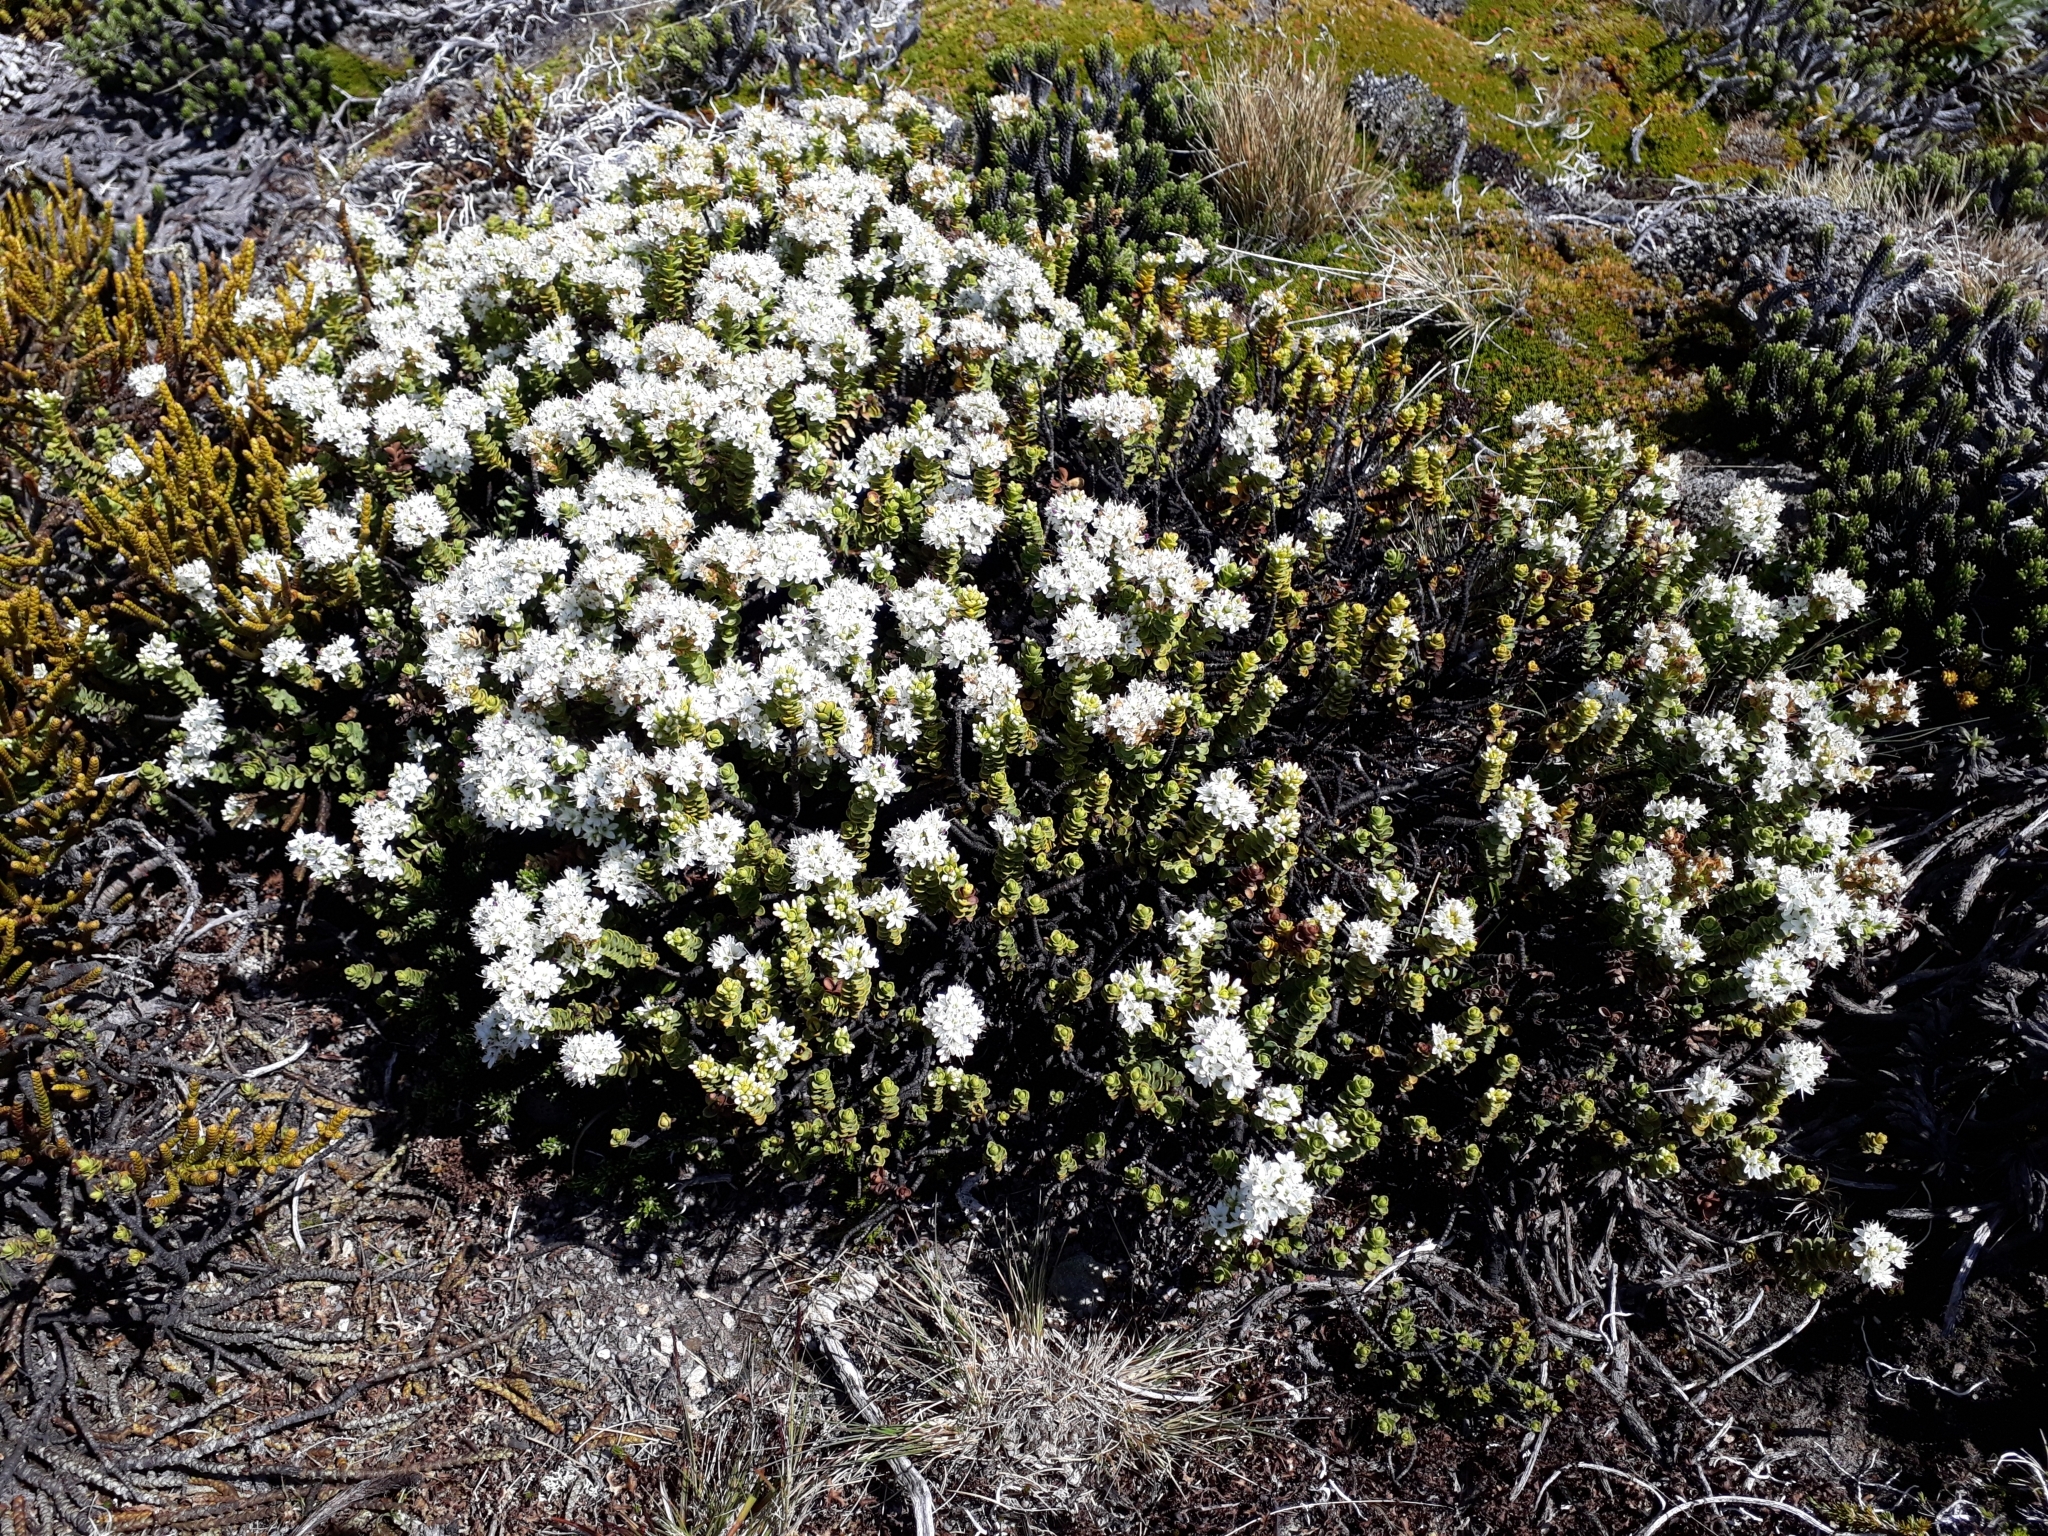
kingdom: Plantae
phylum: Tracheophyta
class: Magnoliopsida
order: Lamiales
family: Plantaginaceae
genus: Veronica
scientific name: Veronica buchananii
